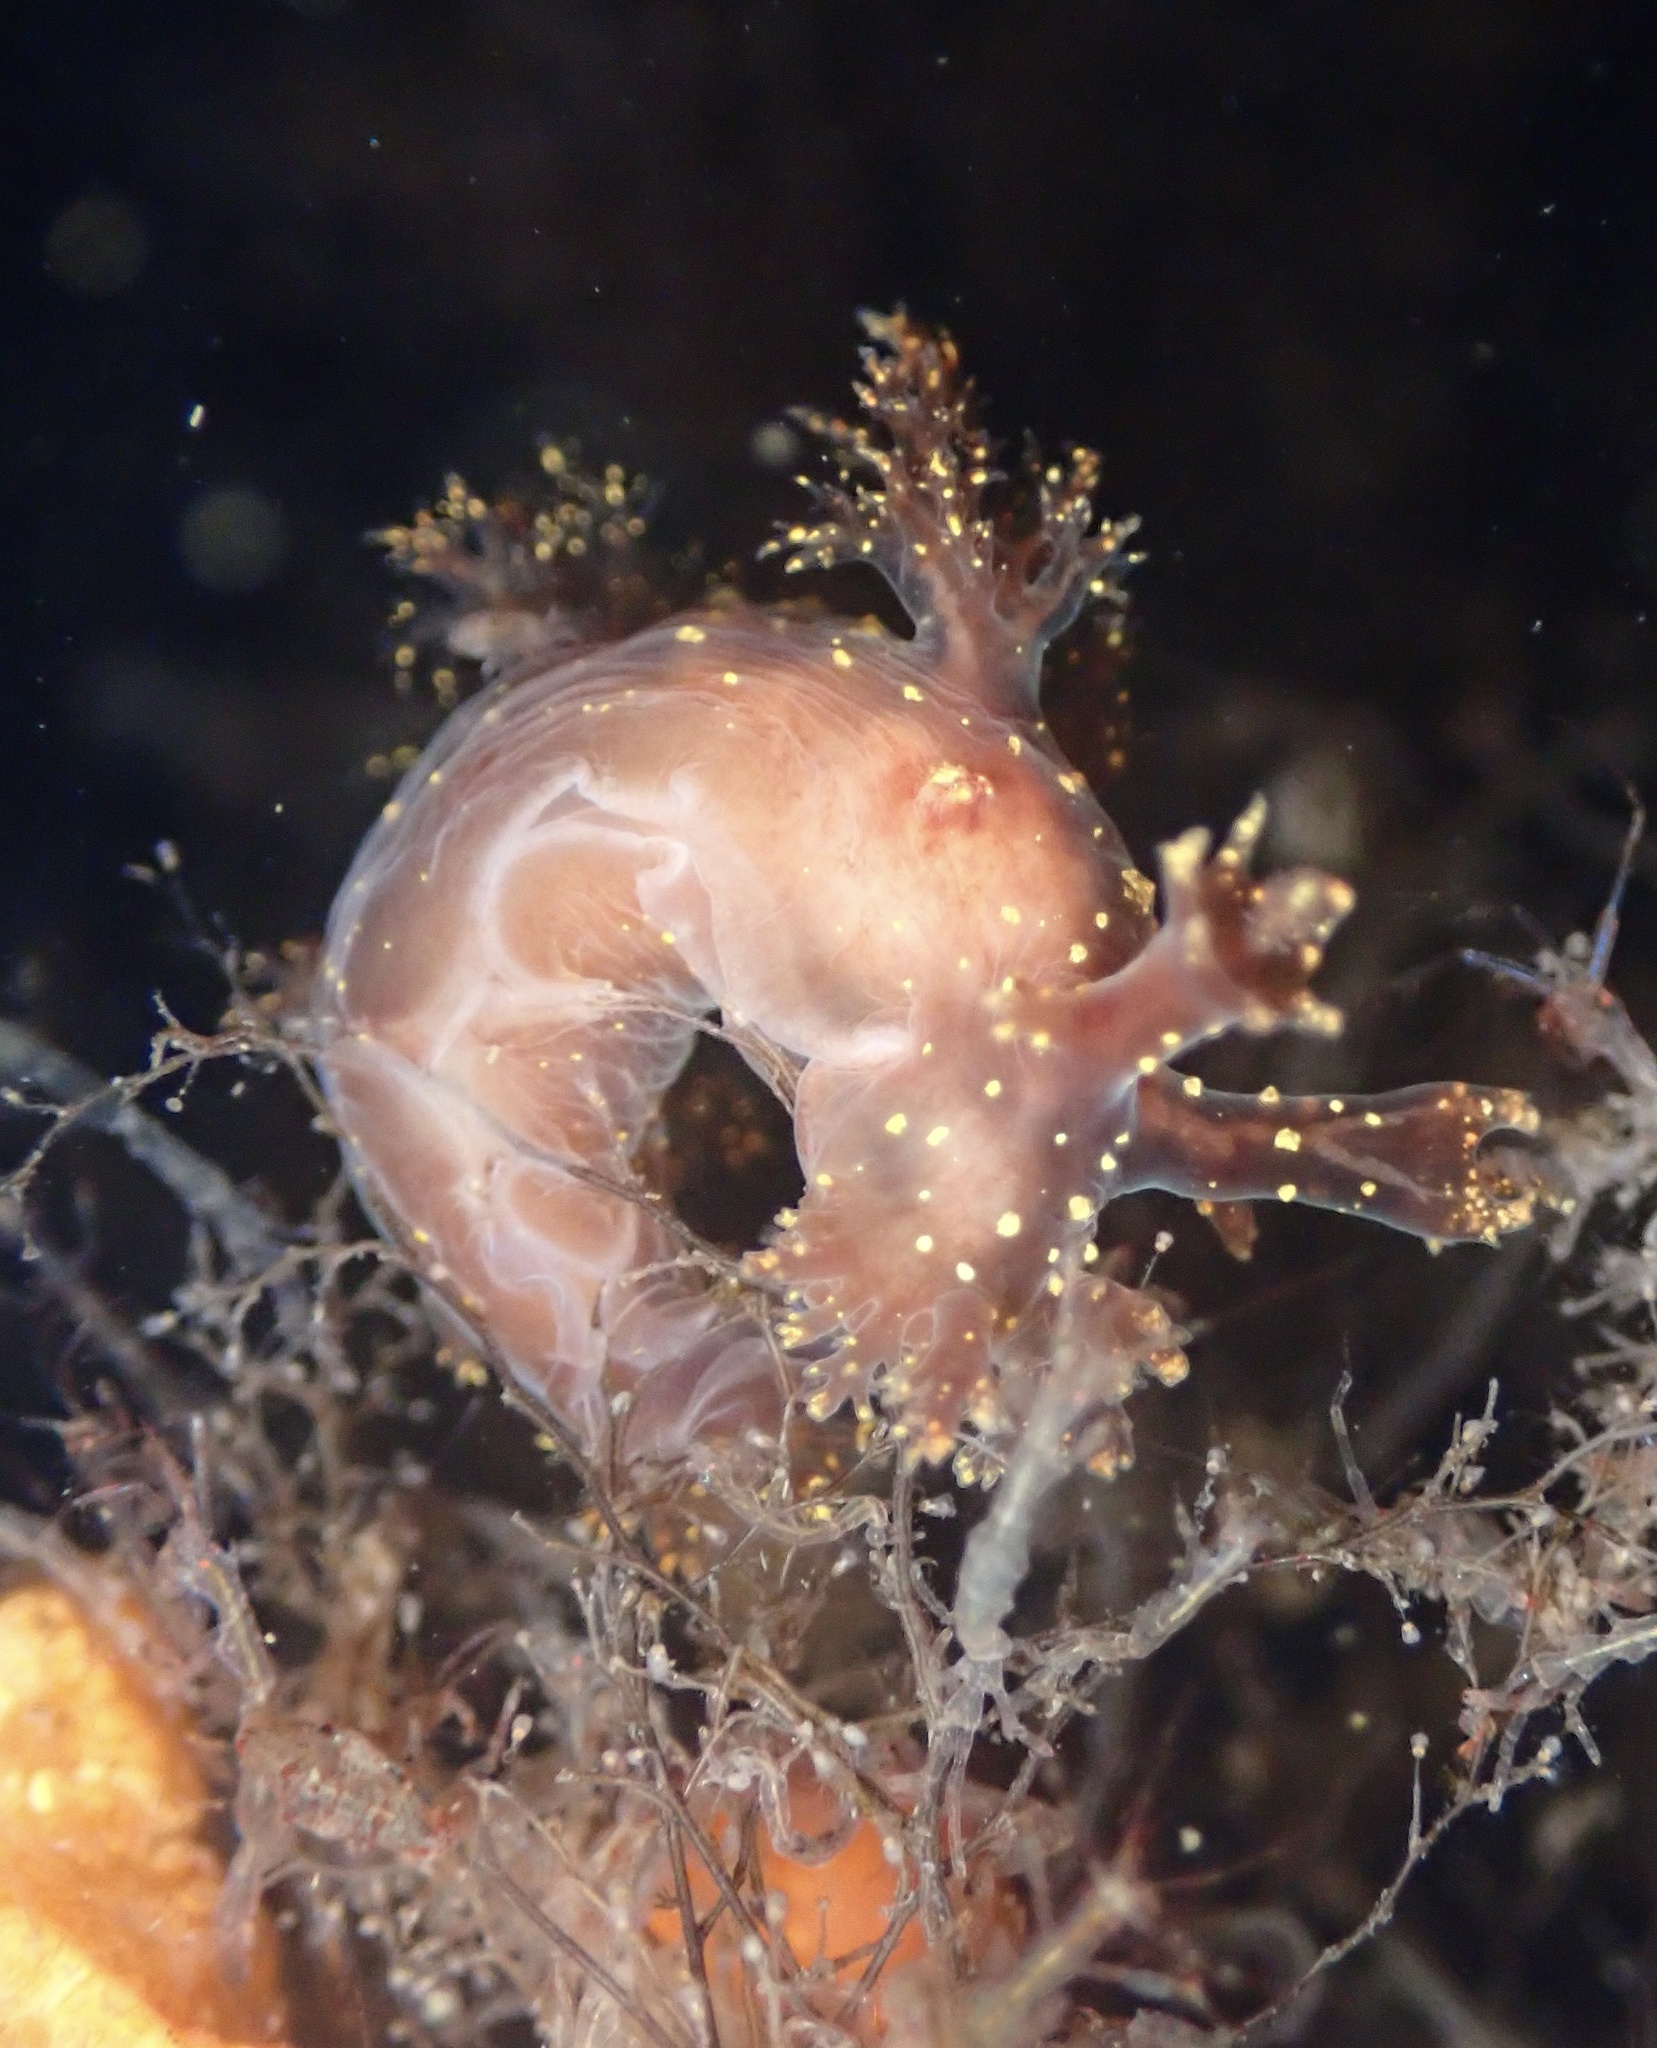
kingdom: Animalia
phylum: Mollusca
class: Gastropoda
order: Nudibranchia
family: Dendronotidae
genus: Dendronotus
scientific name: Dendronotus venustus
